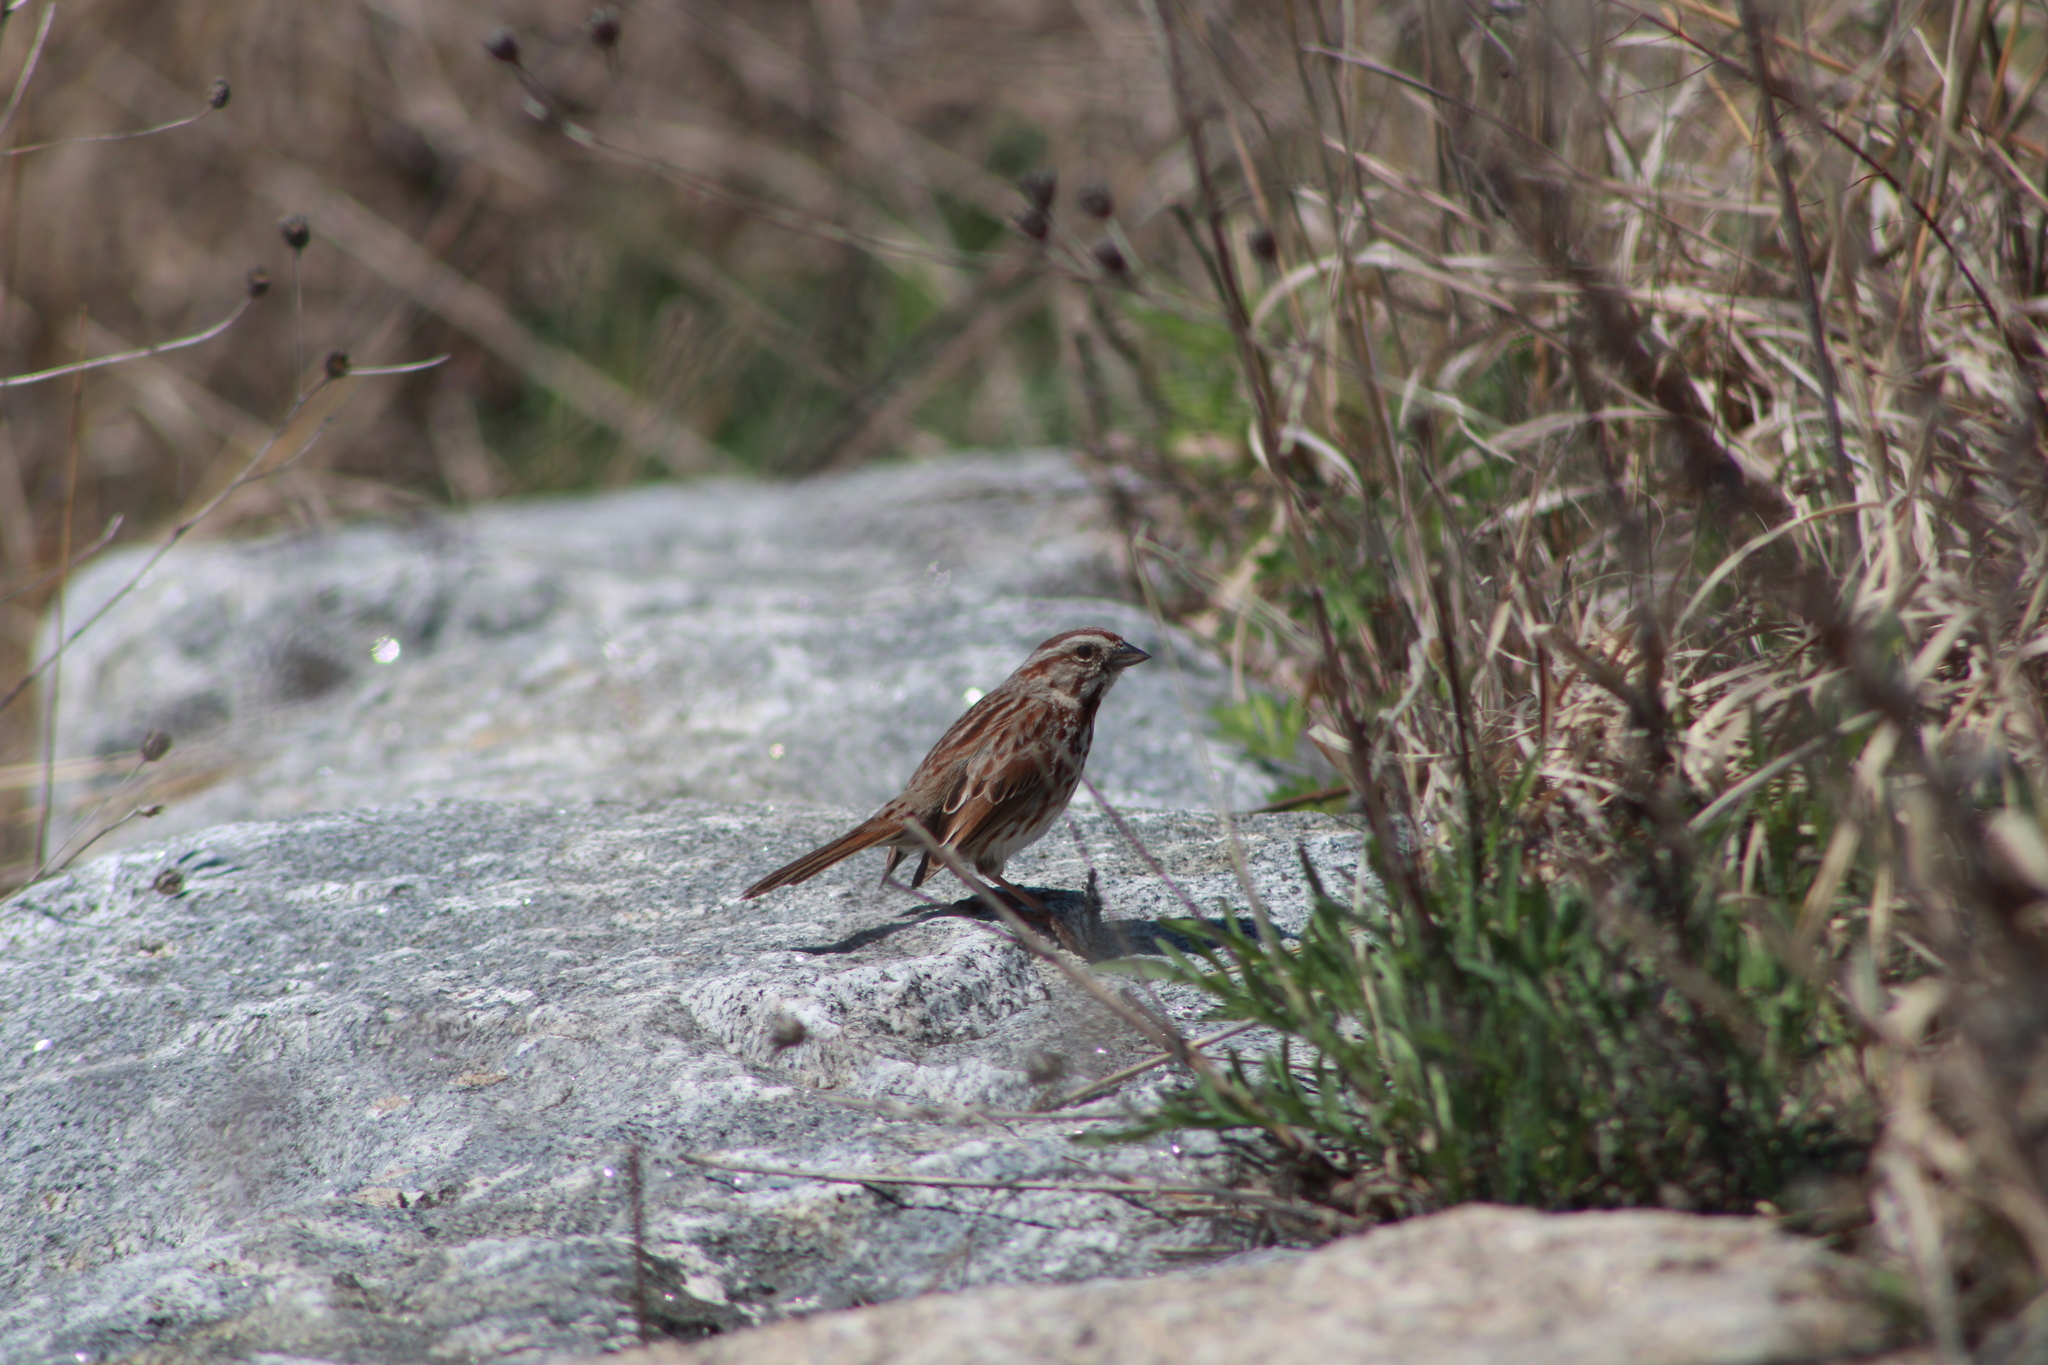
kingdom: Animalia
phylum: Chordata
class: Aves
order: Passeriformes
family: Passerellidae
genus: Melospiza
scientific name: Melospiza melodia
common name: Song sparrow
